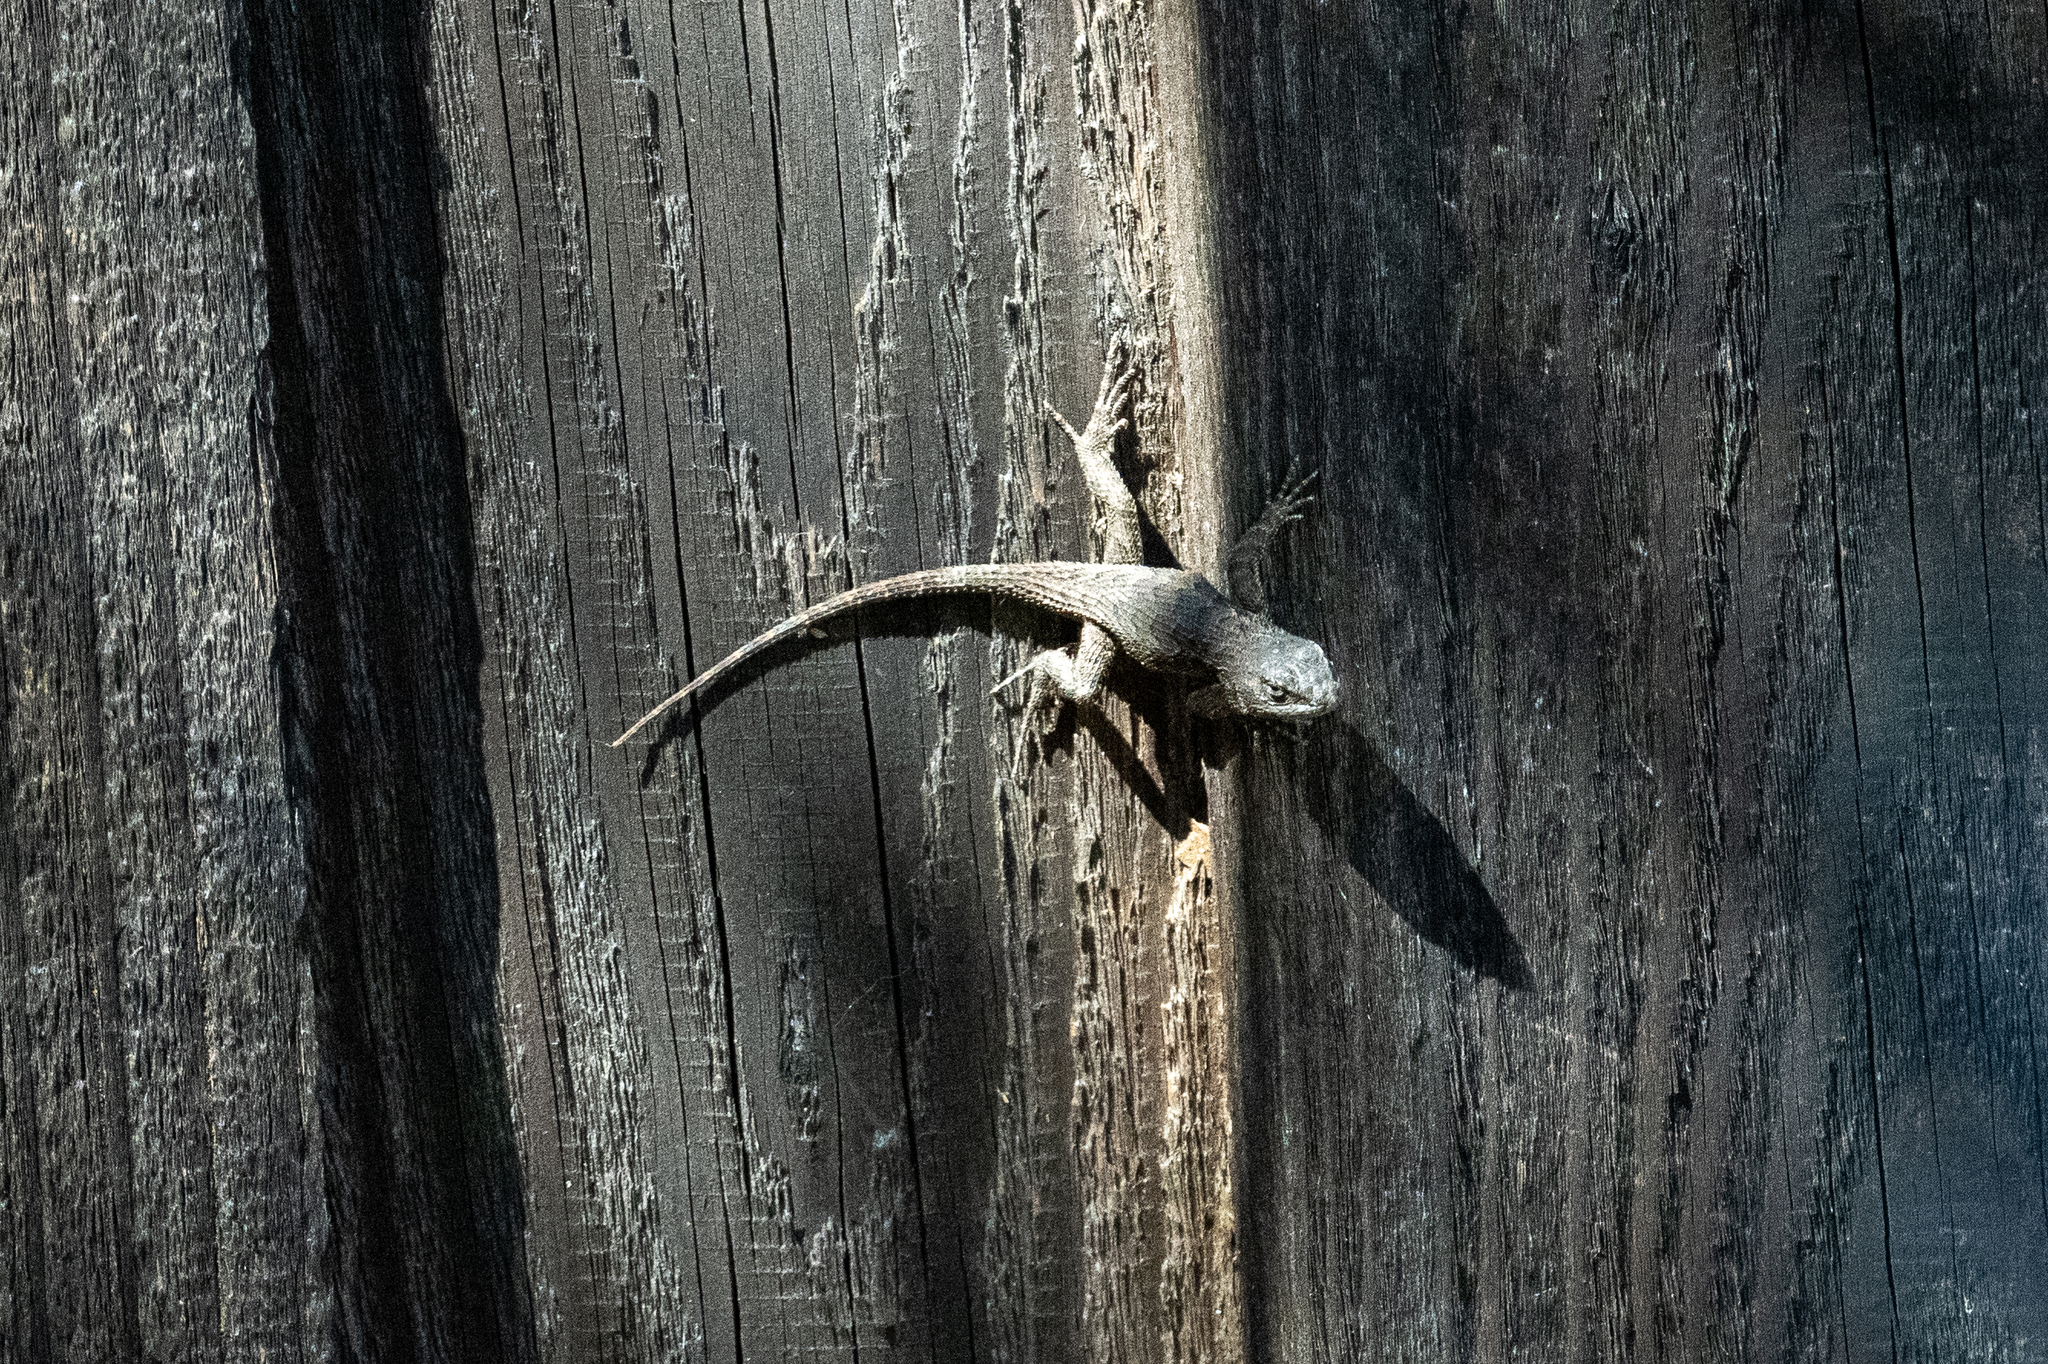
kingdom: Animalia
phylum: Chordata
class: Squamata
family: Phrynosomatidae
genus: Sceloporus
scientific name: Sceloporus occidentalis
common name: Western fence lizard
